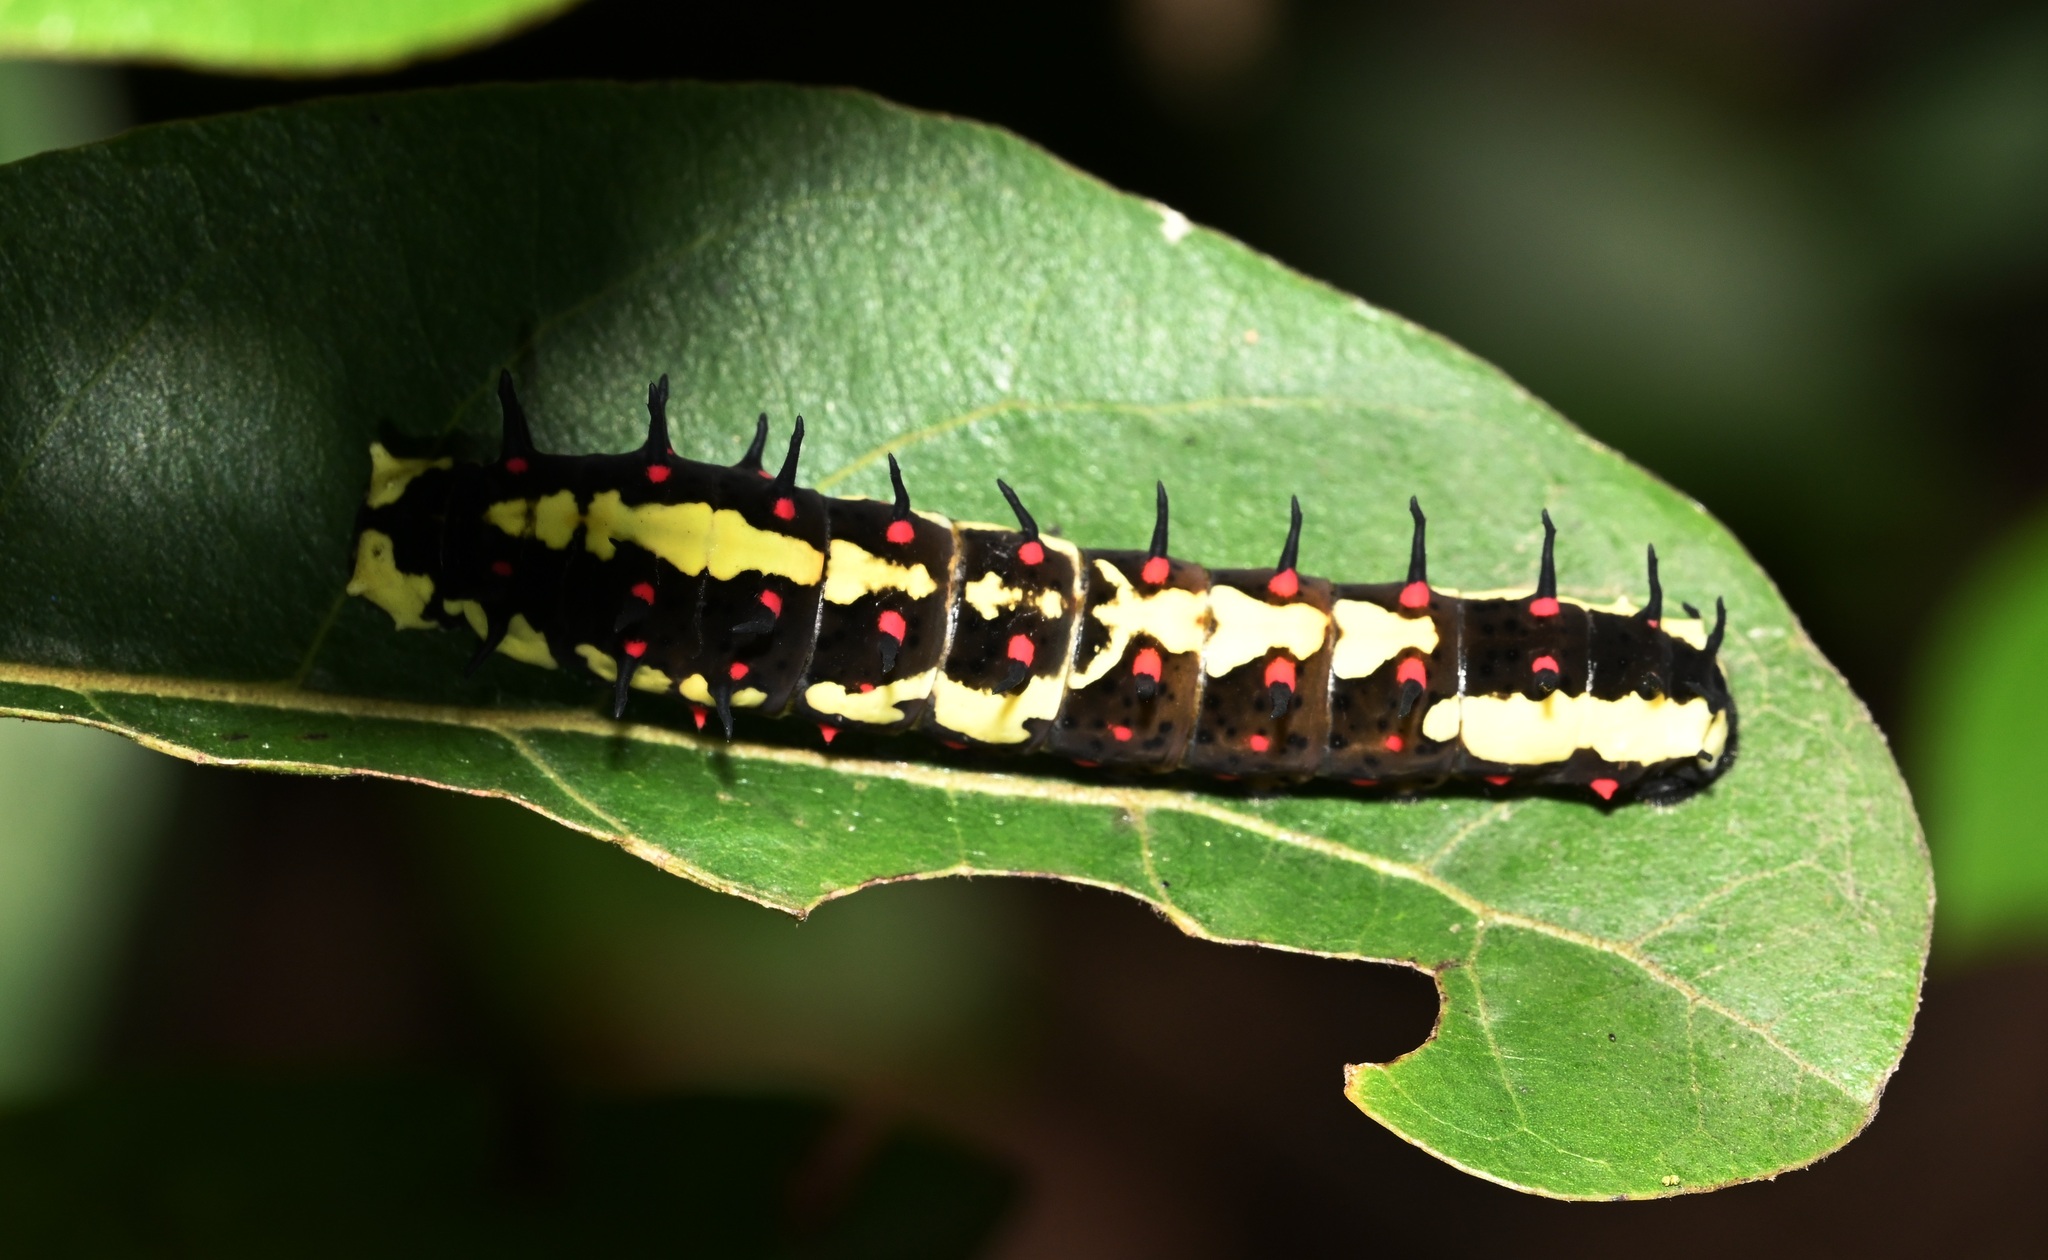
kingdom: Animalia
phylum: Arthropoda
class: Insecta
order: Lepidoptera
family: Papilionidae
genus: Chilasa
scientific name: Chilasa clytia
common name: Common mime
